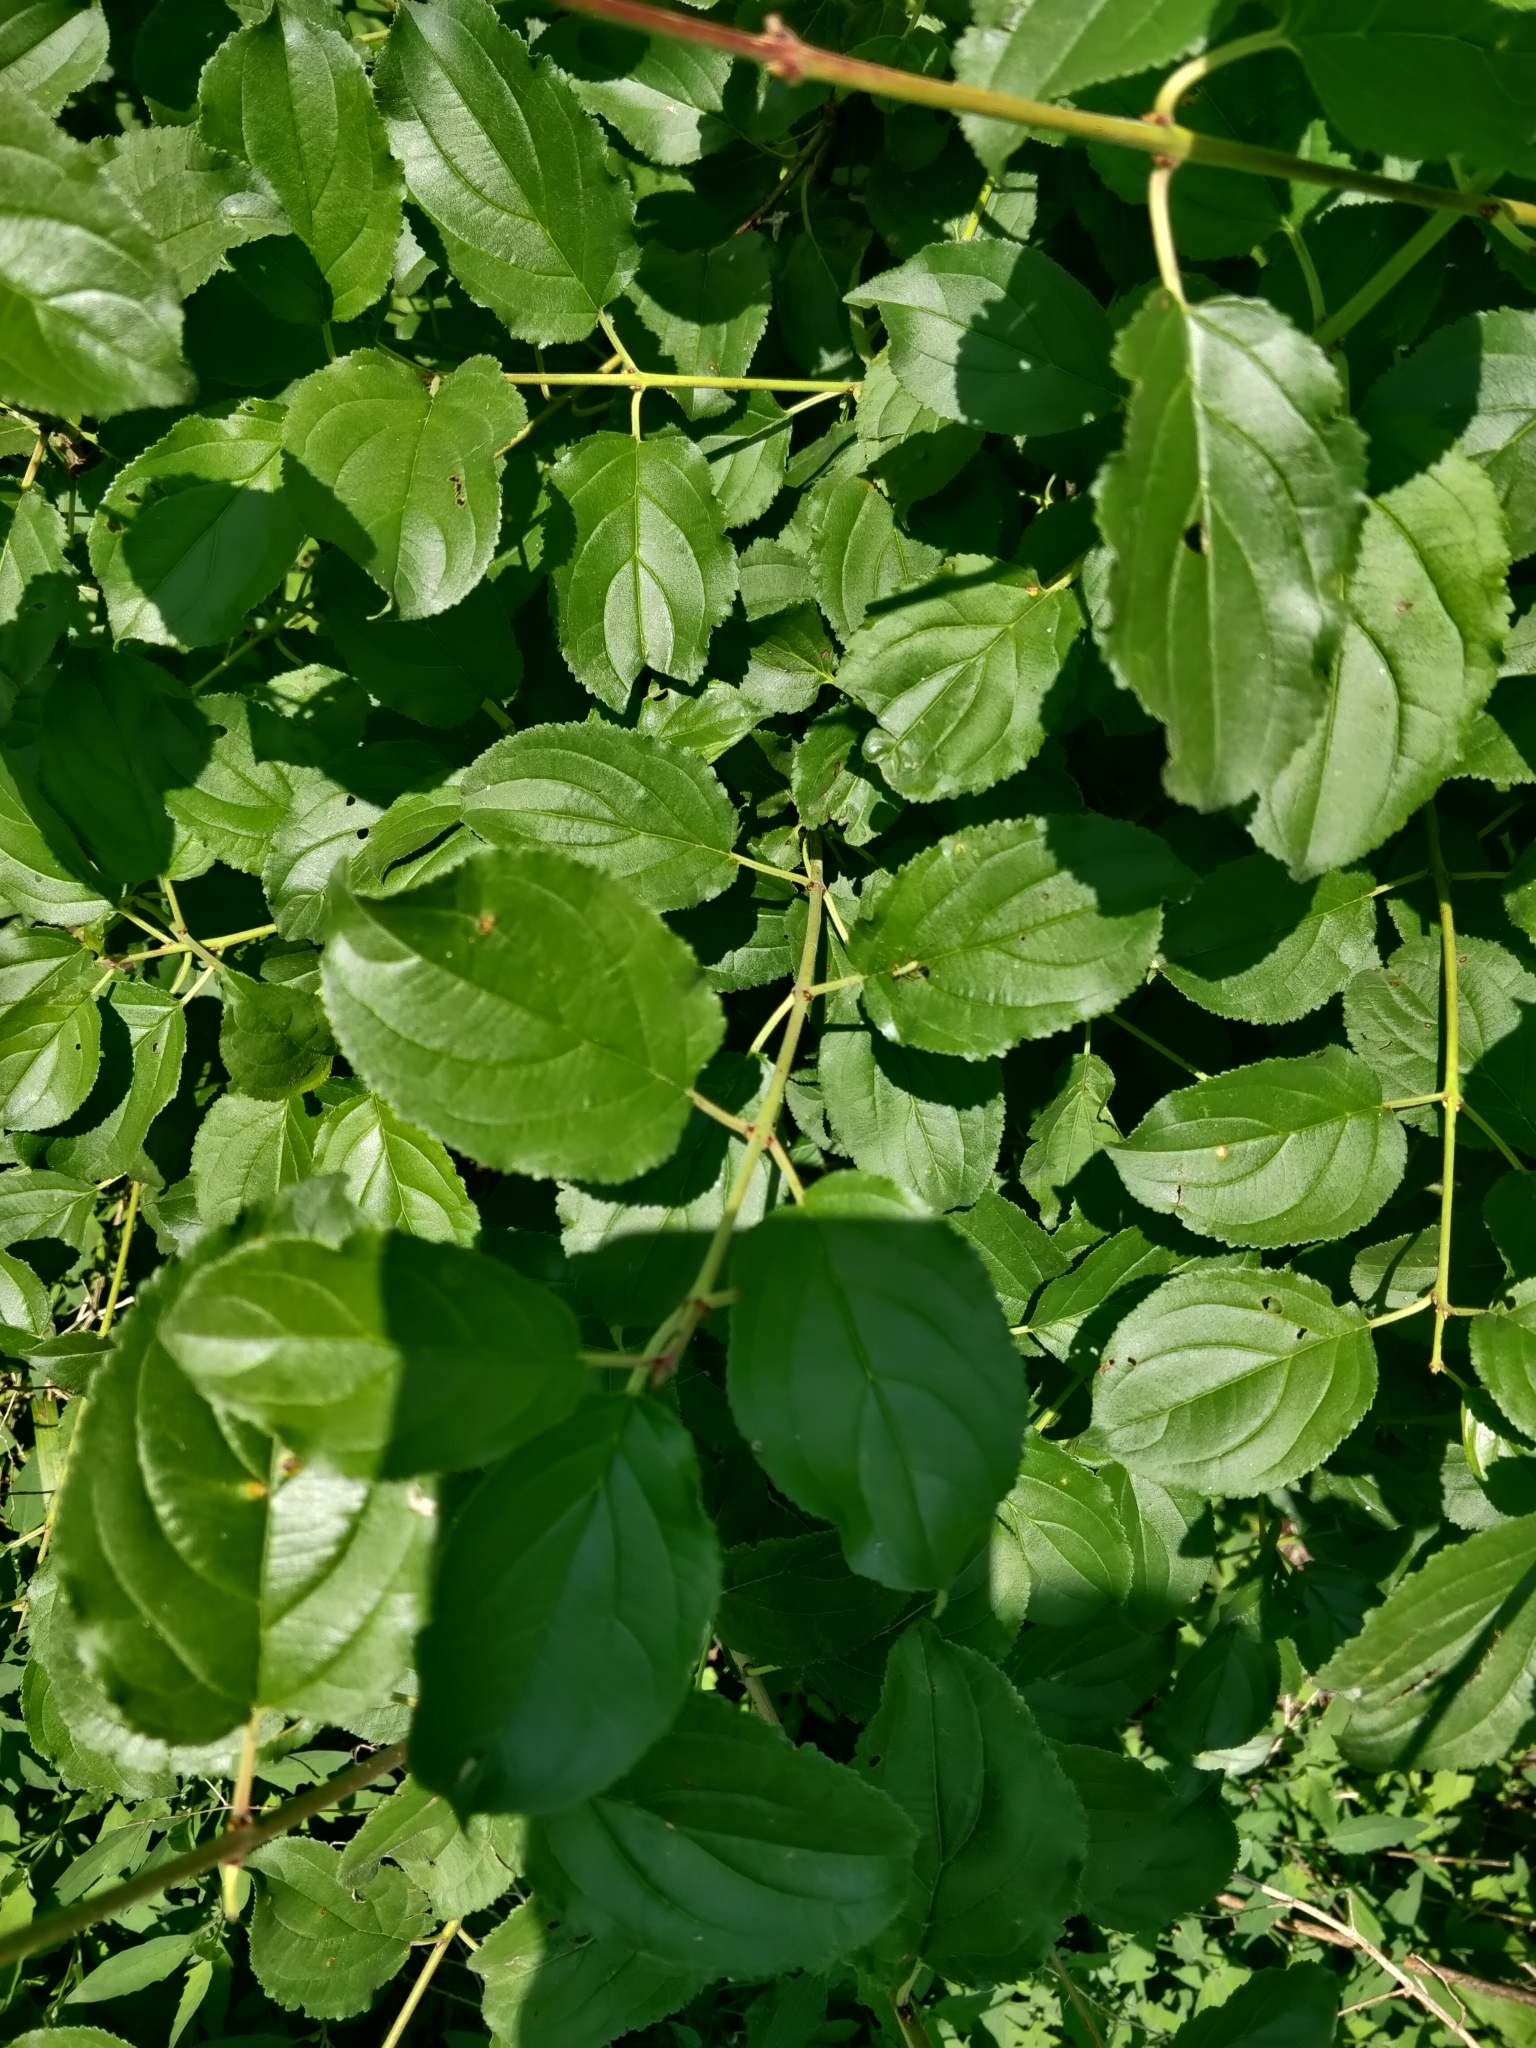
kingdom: Plantae
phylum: Tracheophyta
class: Magnoliopsida
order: Rosales
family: Rhamnaceae
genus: Rhamnus
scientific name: Rhamnus cathartica
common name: Common buckthorn
